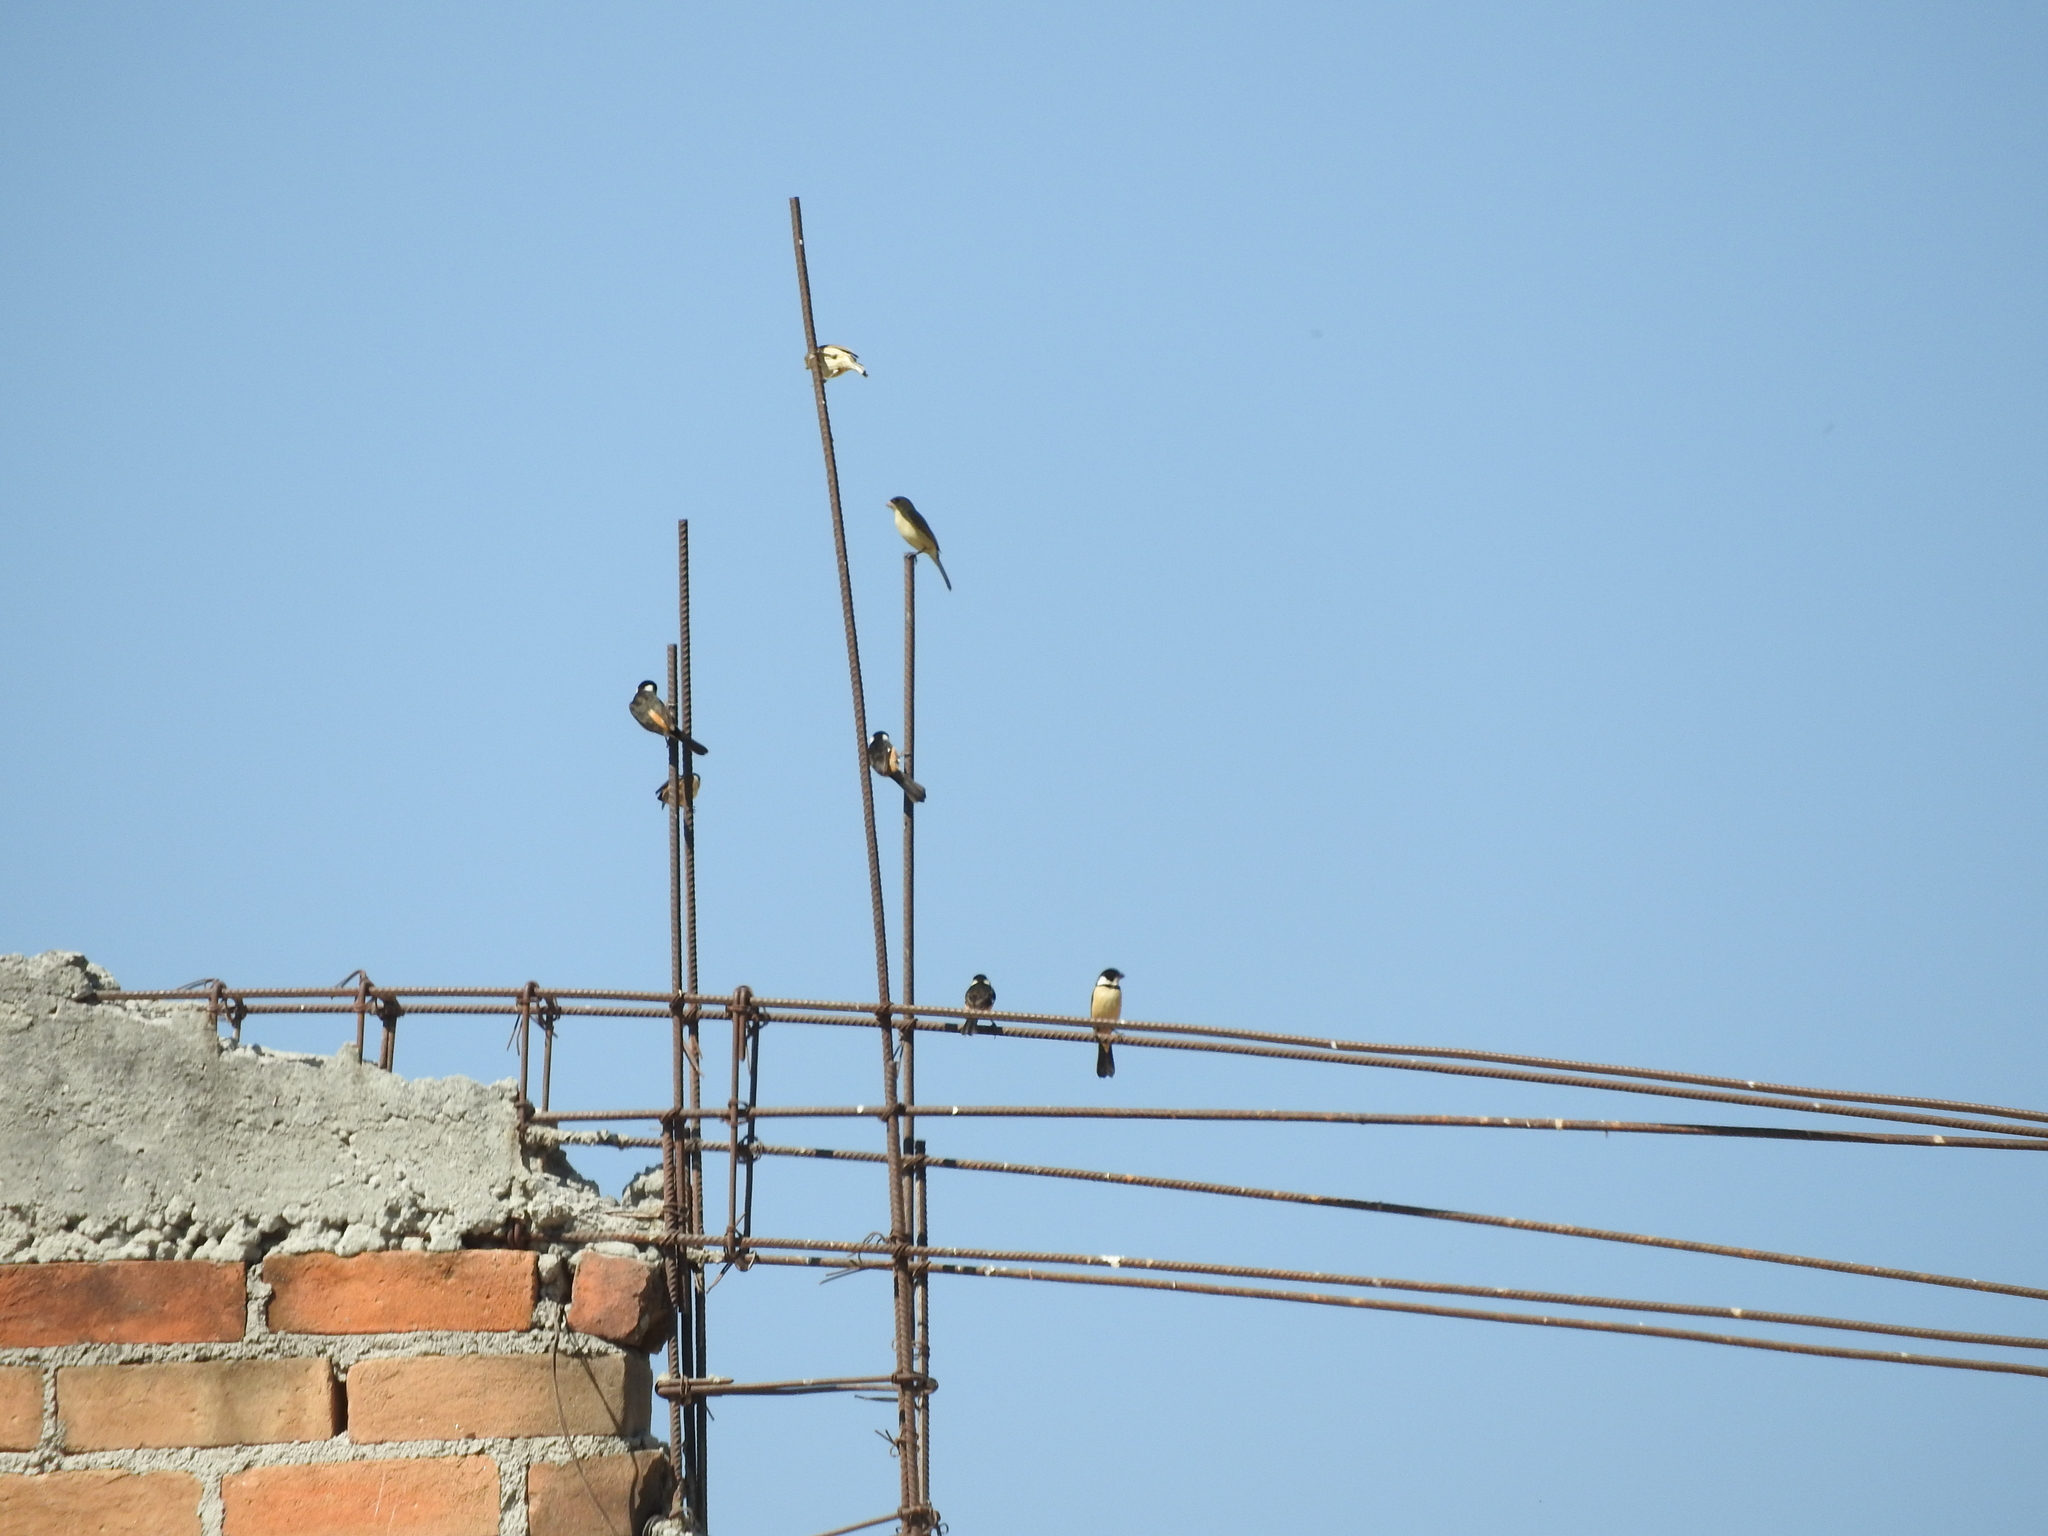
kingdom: Animalia
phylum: Chordata
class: Aves
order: Passeriformes
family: Thraupidae
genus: Sporophila
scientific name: Sporophila torqueola
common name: White-collared seedeater
